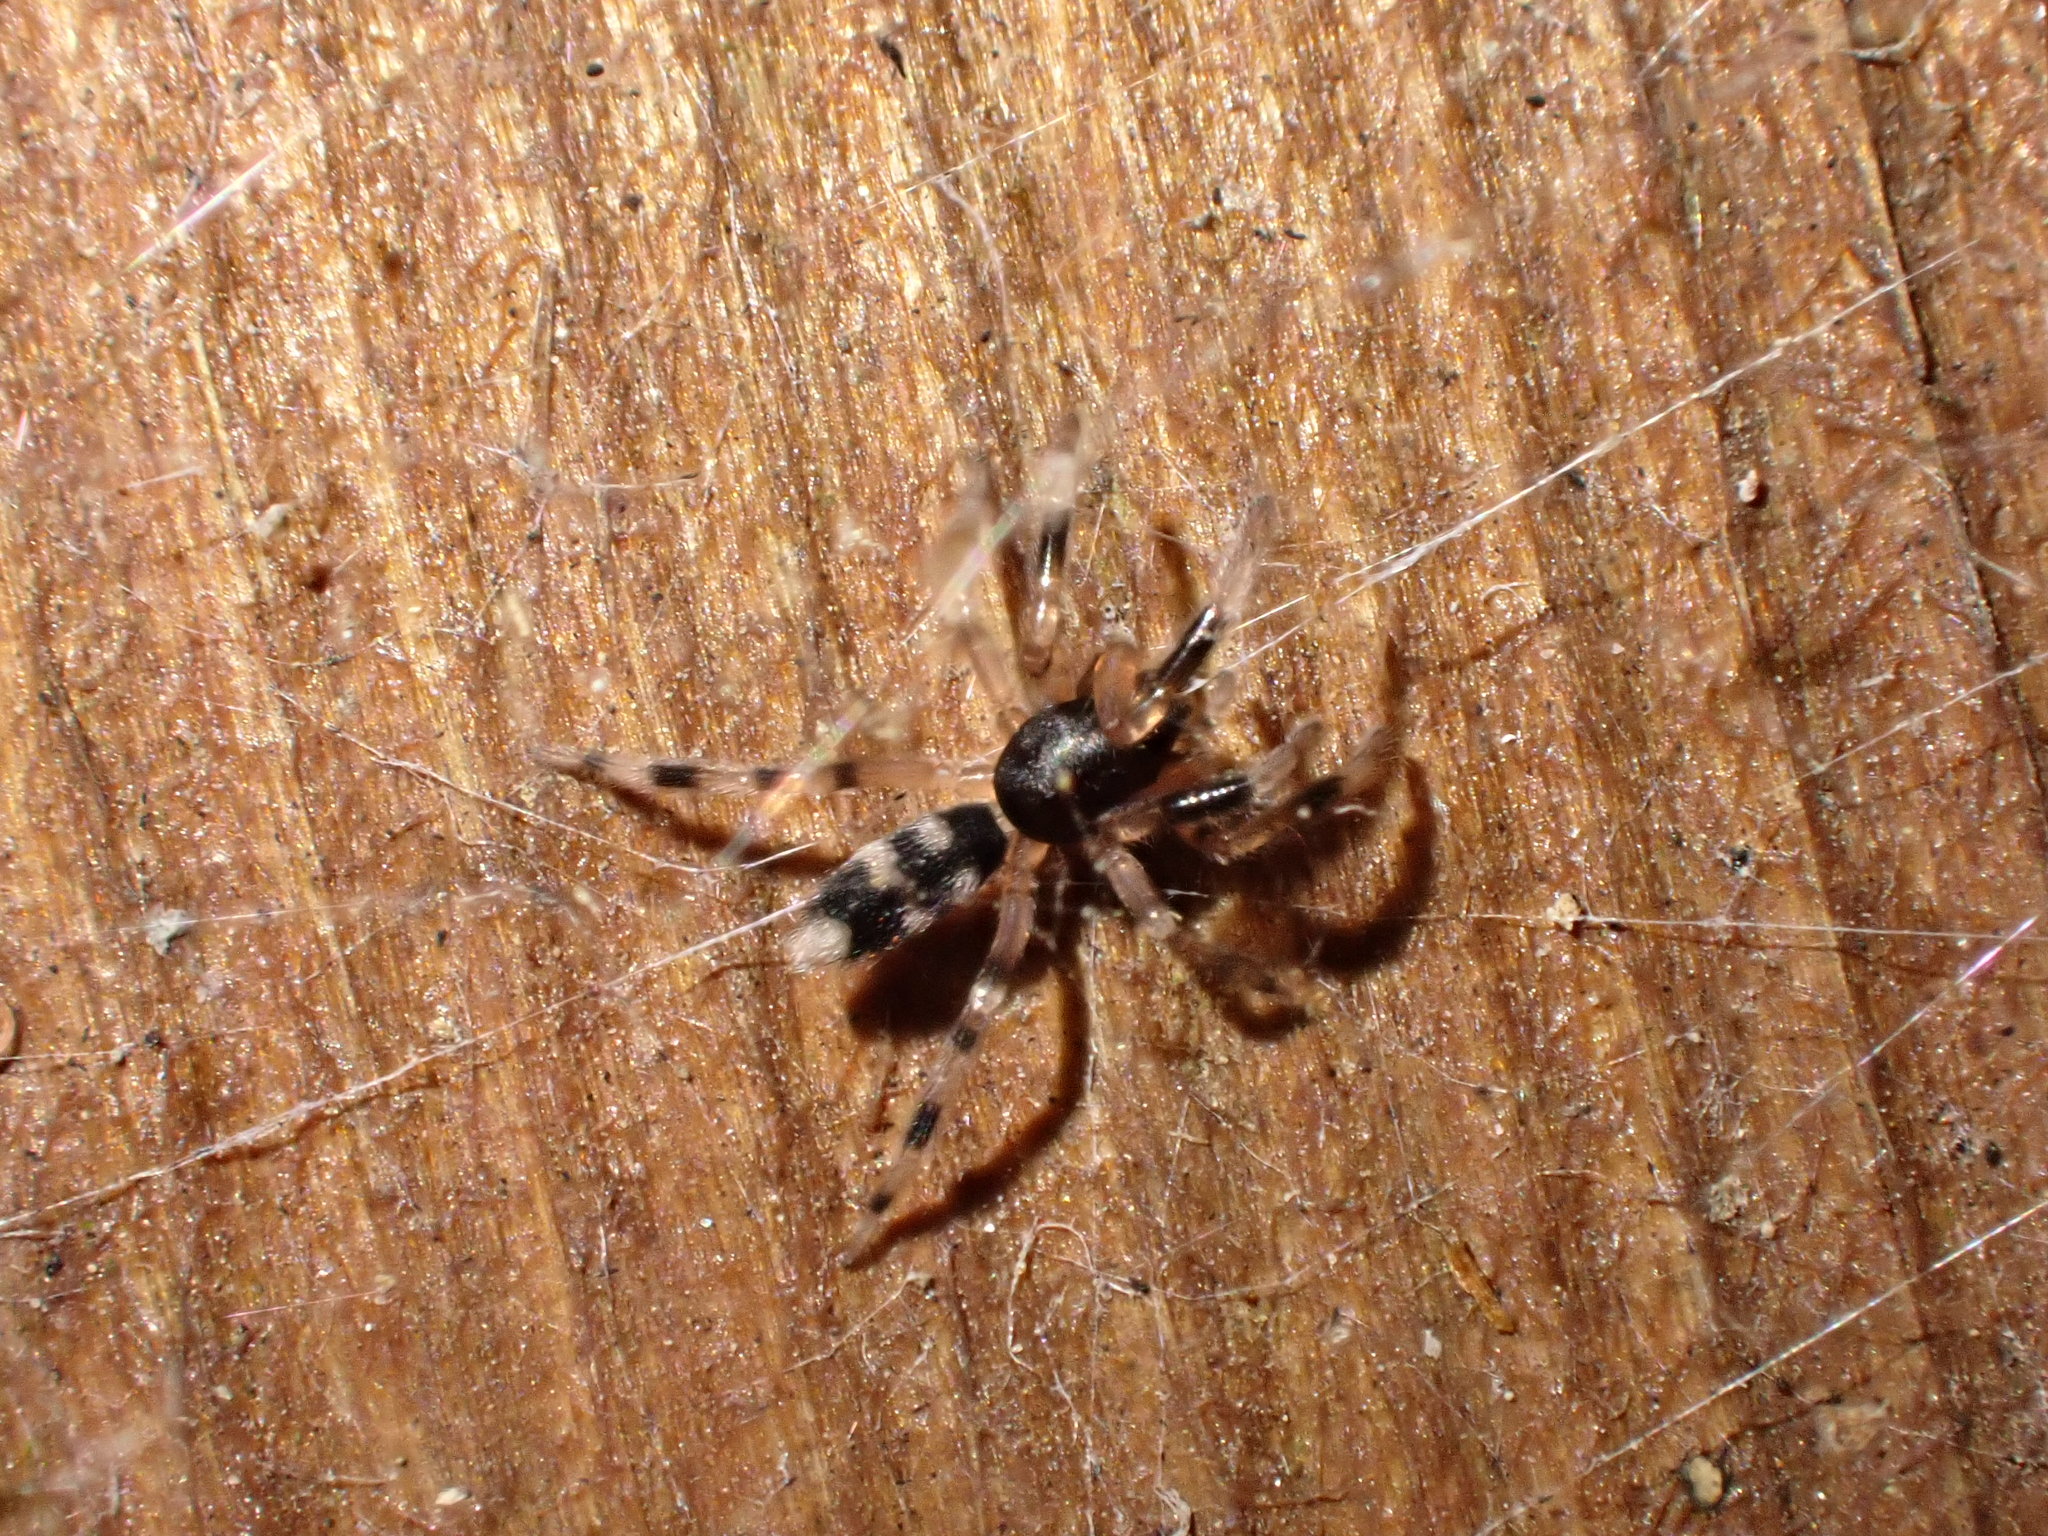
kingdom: Animalia
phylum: Arthropoda
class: Arachnida
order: Araneae
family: Lamponidae
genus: Lampona
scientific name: Lampona murina
